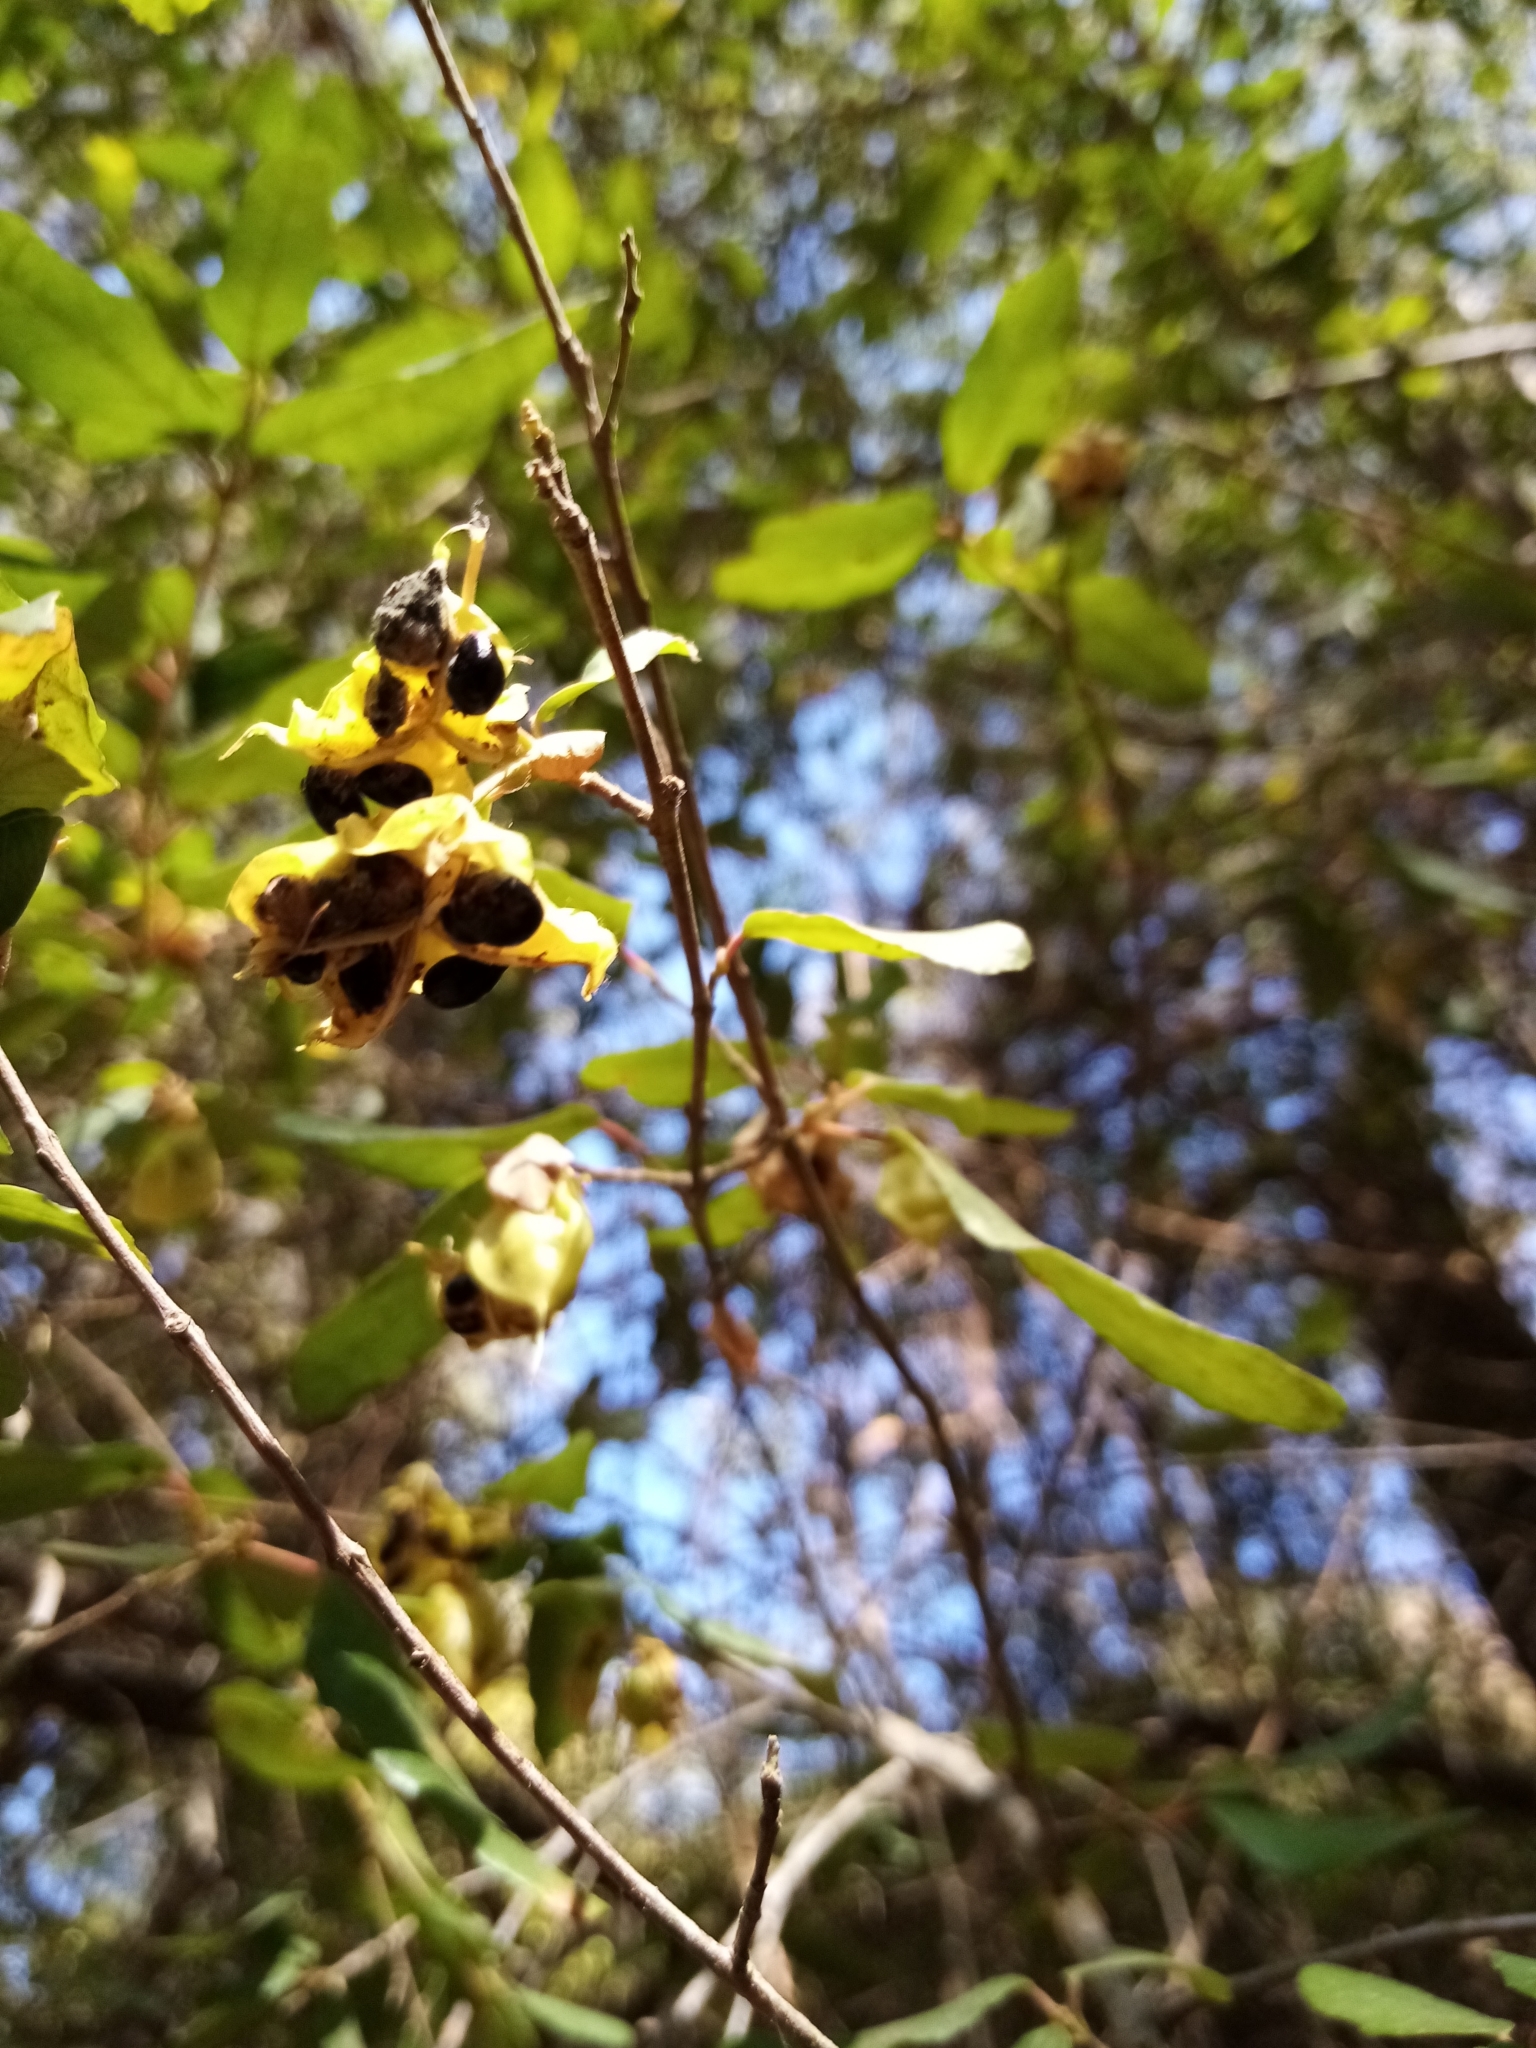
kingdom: Plantae
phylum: Tracheophyta
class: Magnoliopsida
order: Oxalidales
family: Elaeocarpaceae
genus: Crinodendron
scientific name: Crinodendron patagua
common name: Lily-of-the-valley-tree
